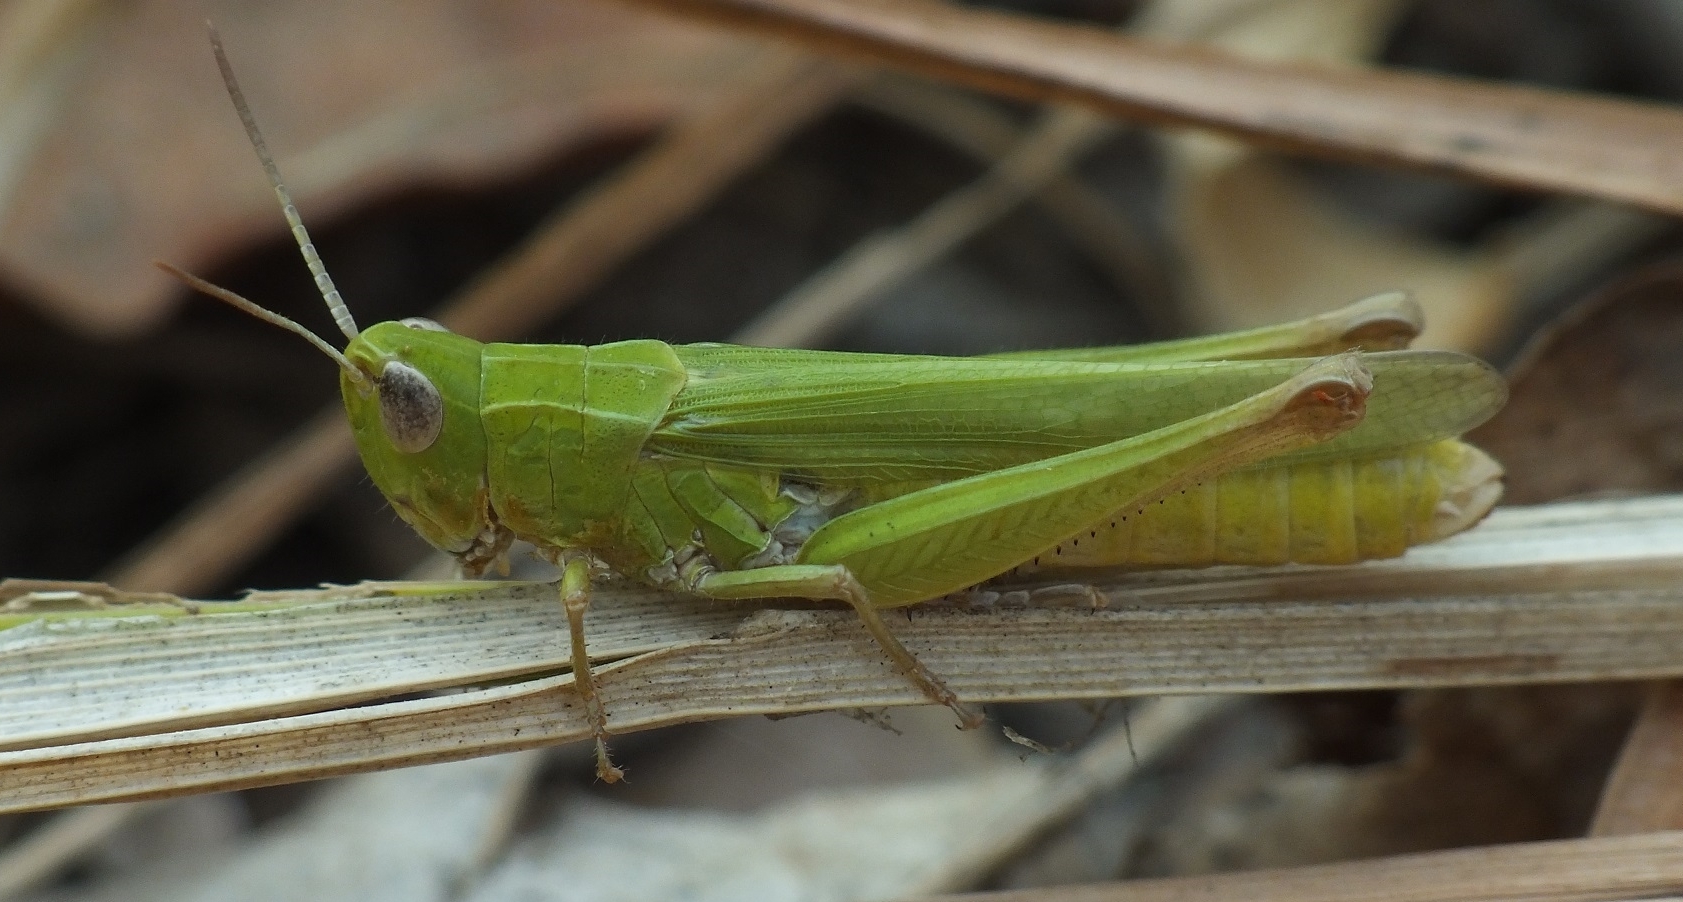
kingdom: Animalia
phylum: Arthropoda
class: Insecta
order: Orthoptera
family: Acrididae
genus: Chorthippus
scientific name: Chorthippus dichrous
